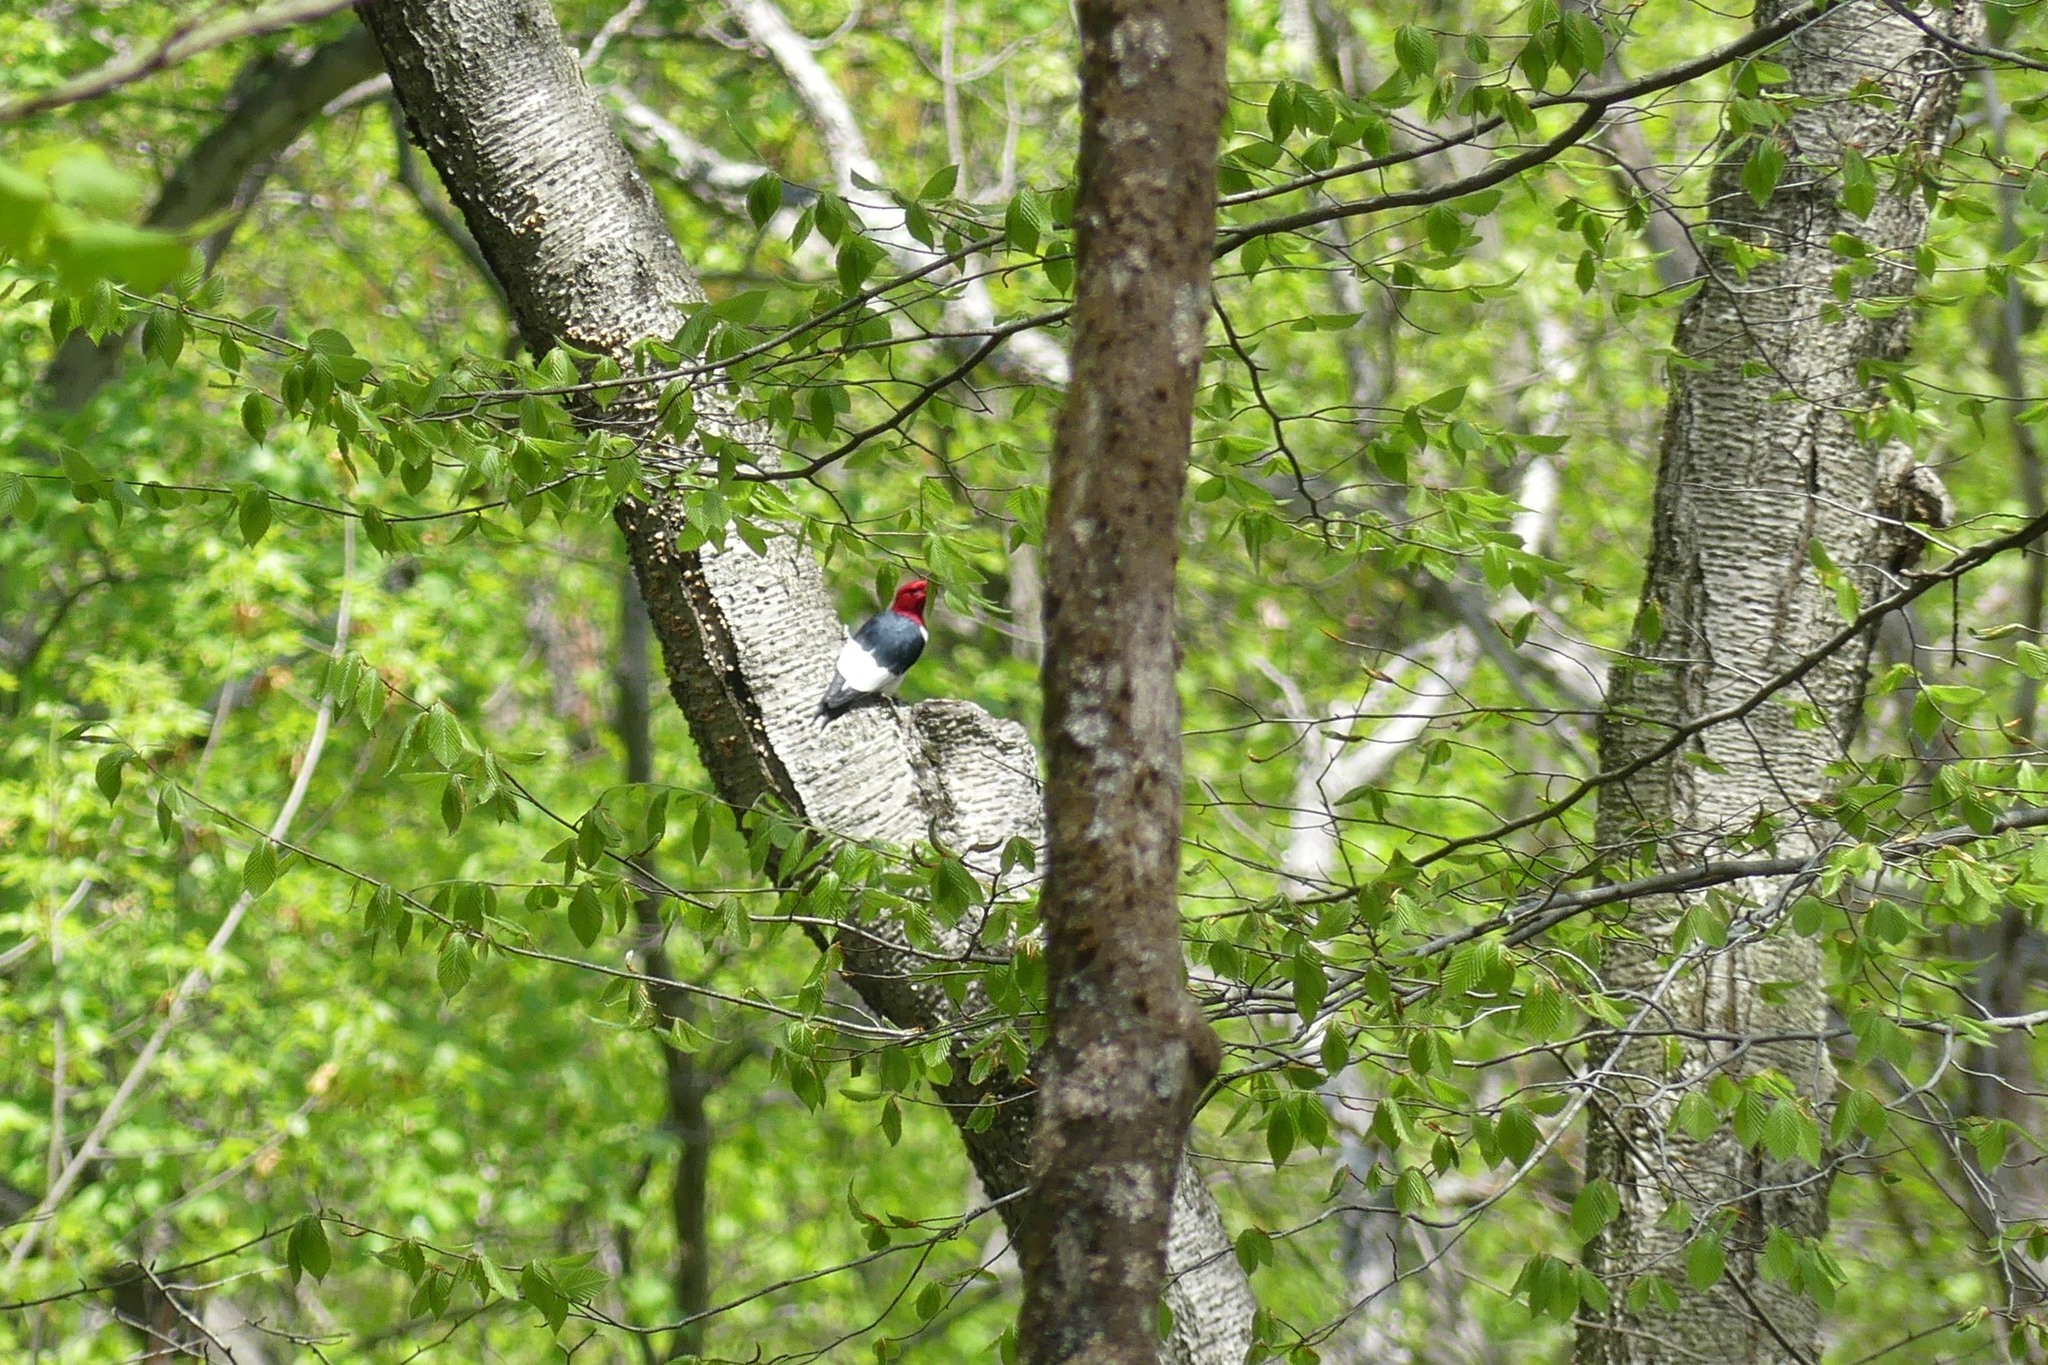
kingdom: Animalia
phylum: Chordata
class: Aves
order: Piciformes
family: Picidae
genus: Melanerpes
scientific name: Melanerpes erythrocephalus
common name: Red-headed woodpecker
